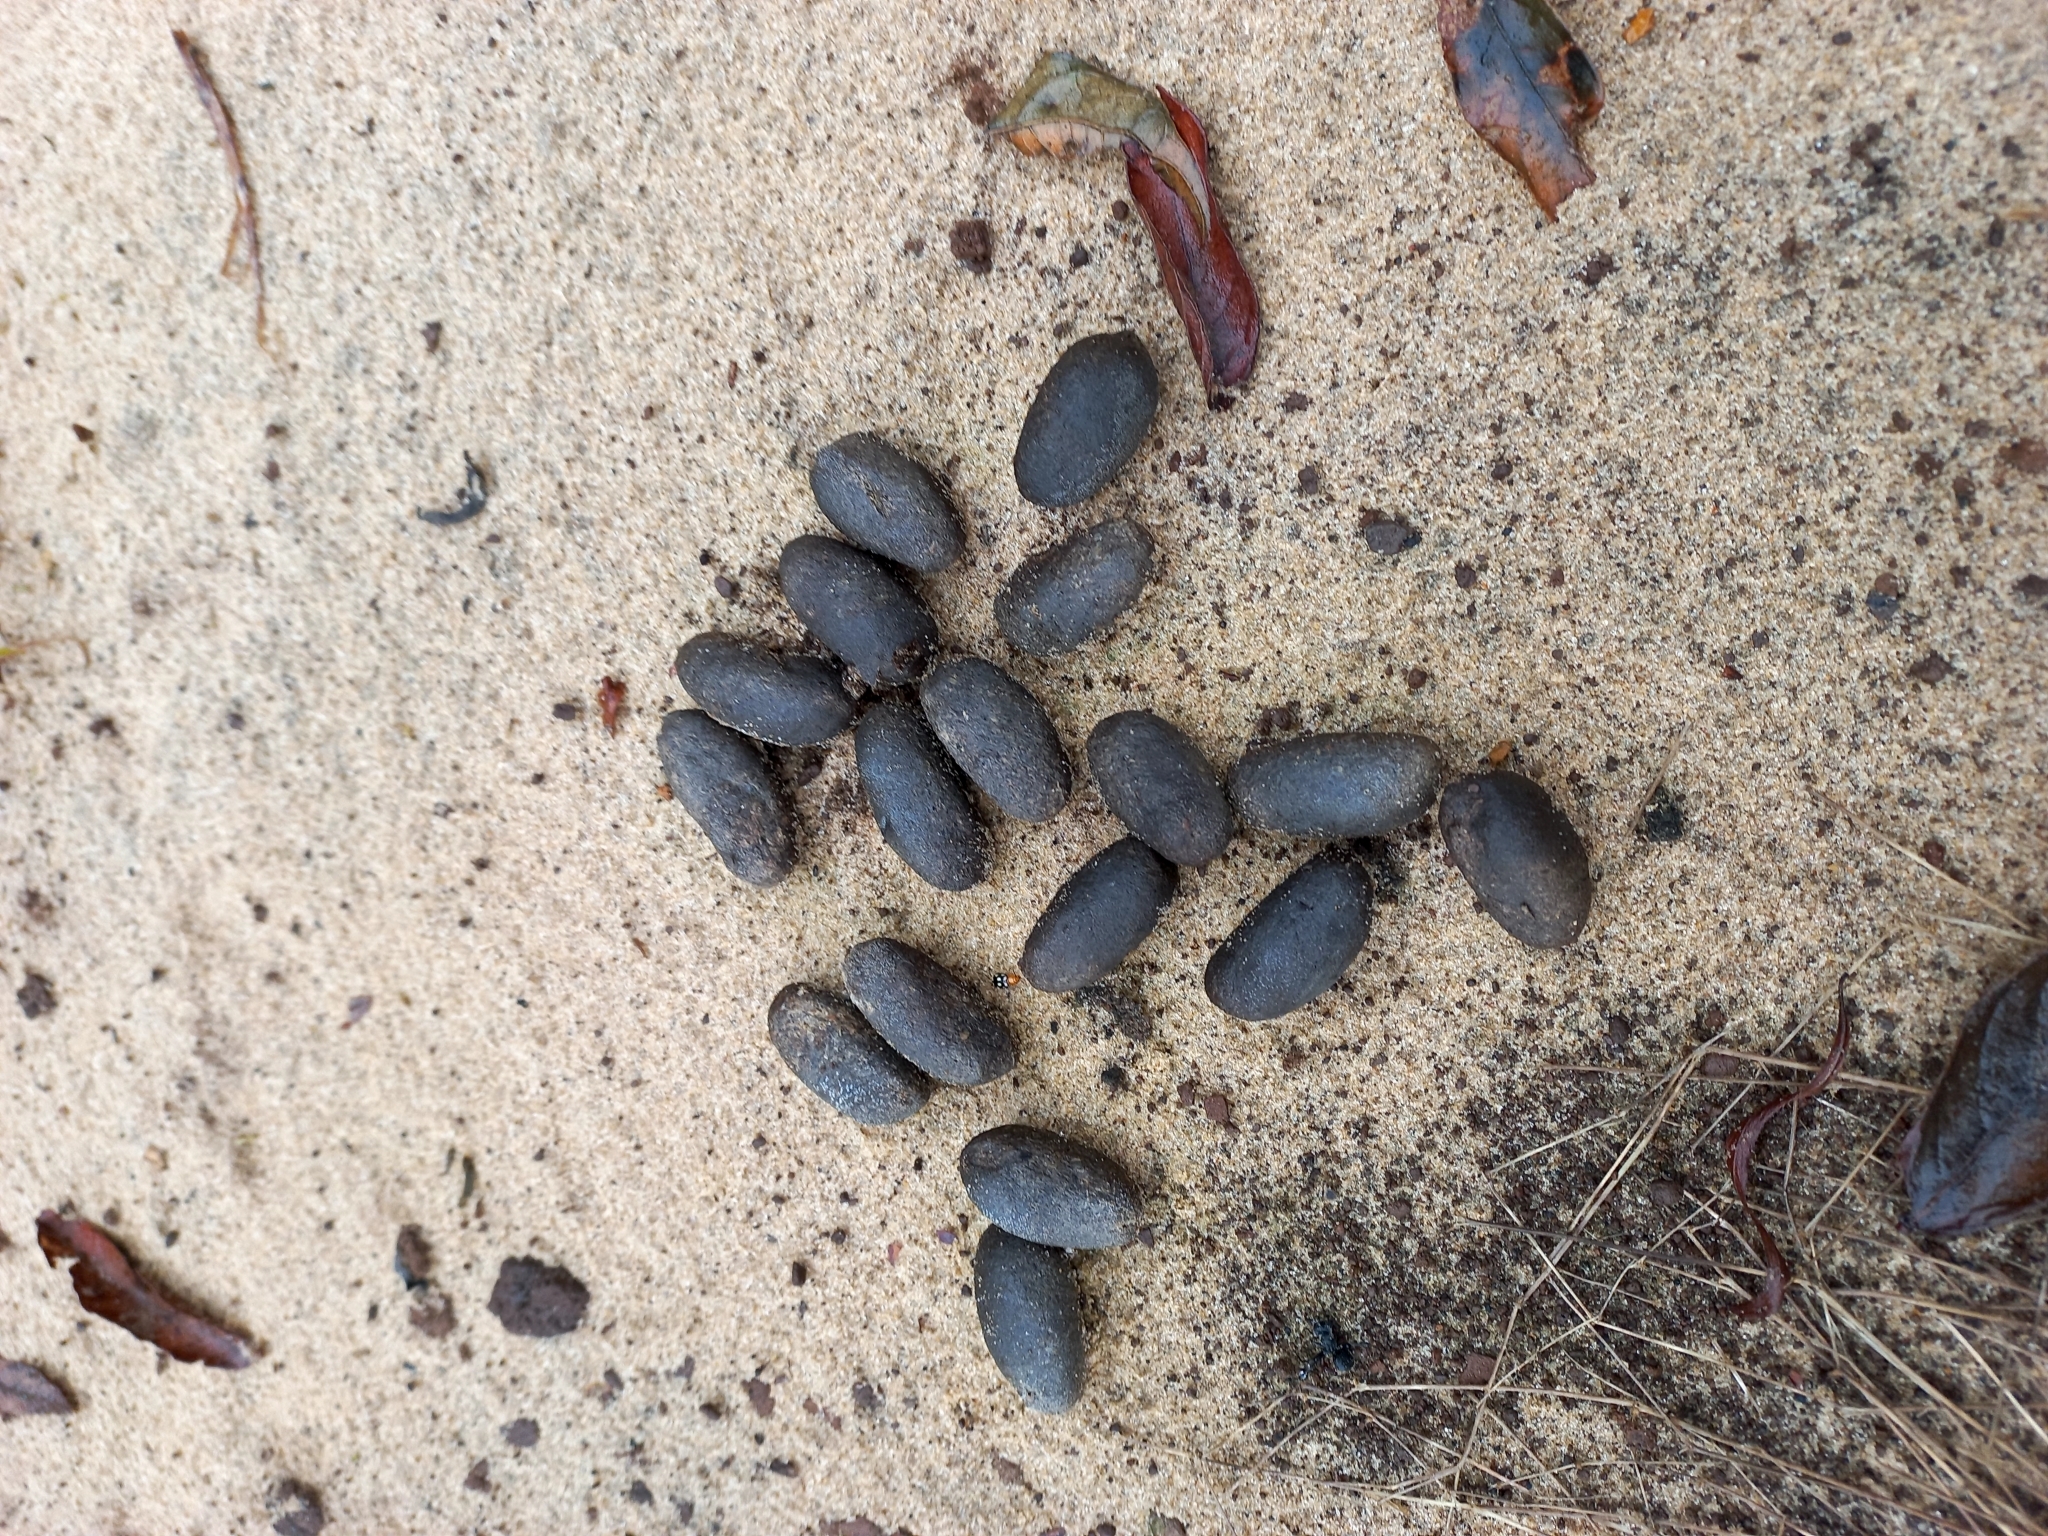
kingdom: Animalia
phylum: Chordata
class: Mammalia
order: Rodentia
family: Caviidae
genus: Hydrochoerus
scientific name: Hydrochoerus hydrochaeris
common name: Capybara
